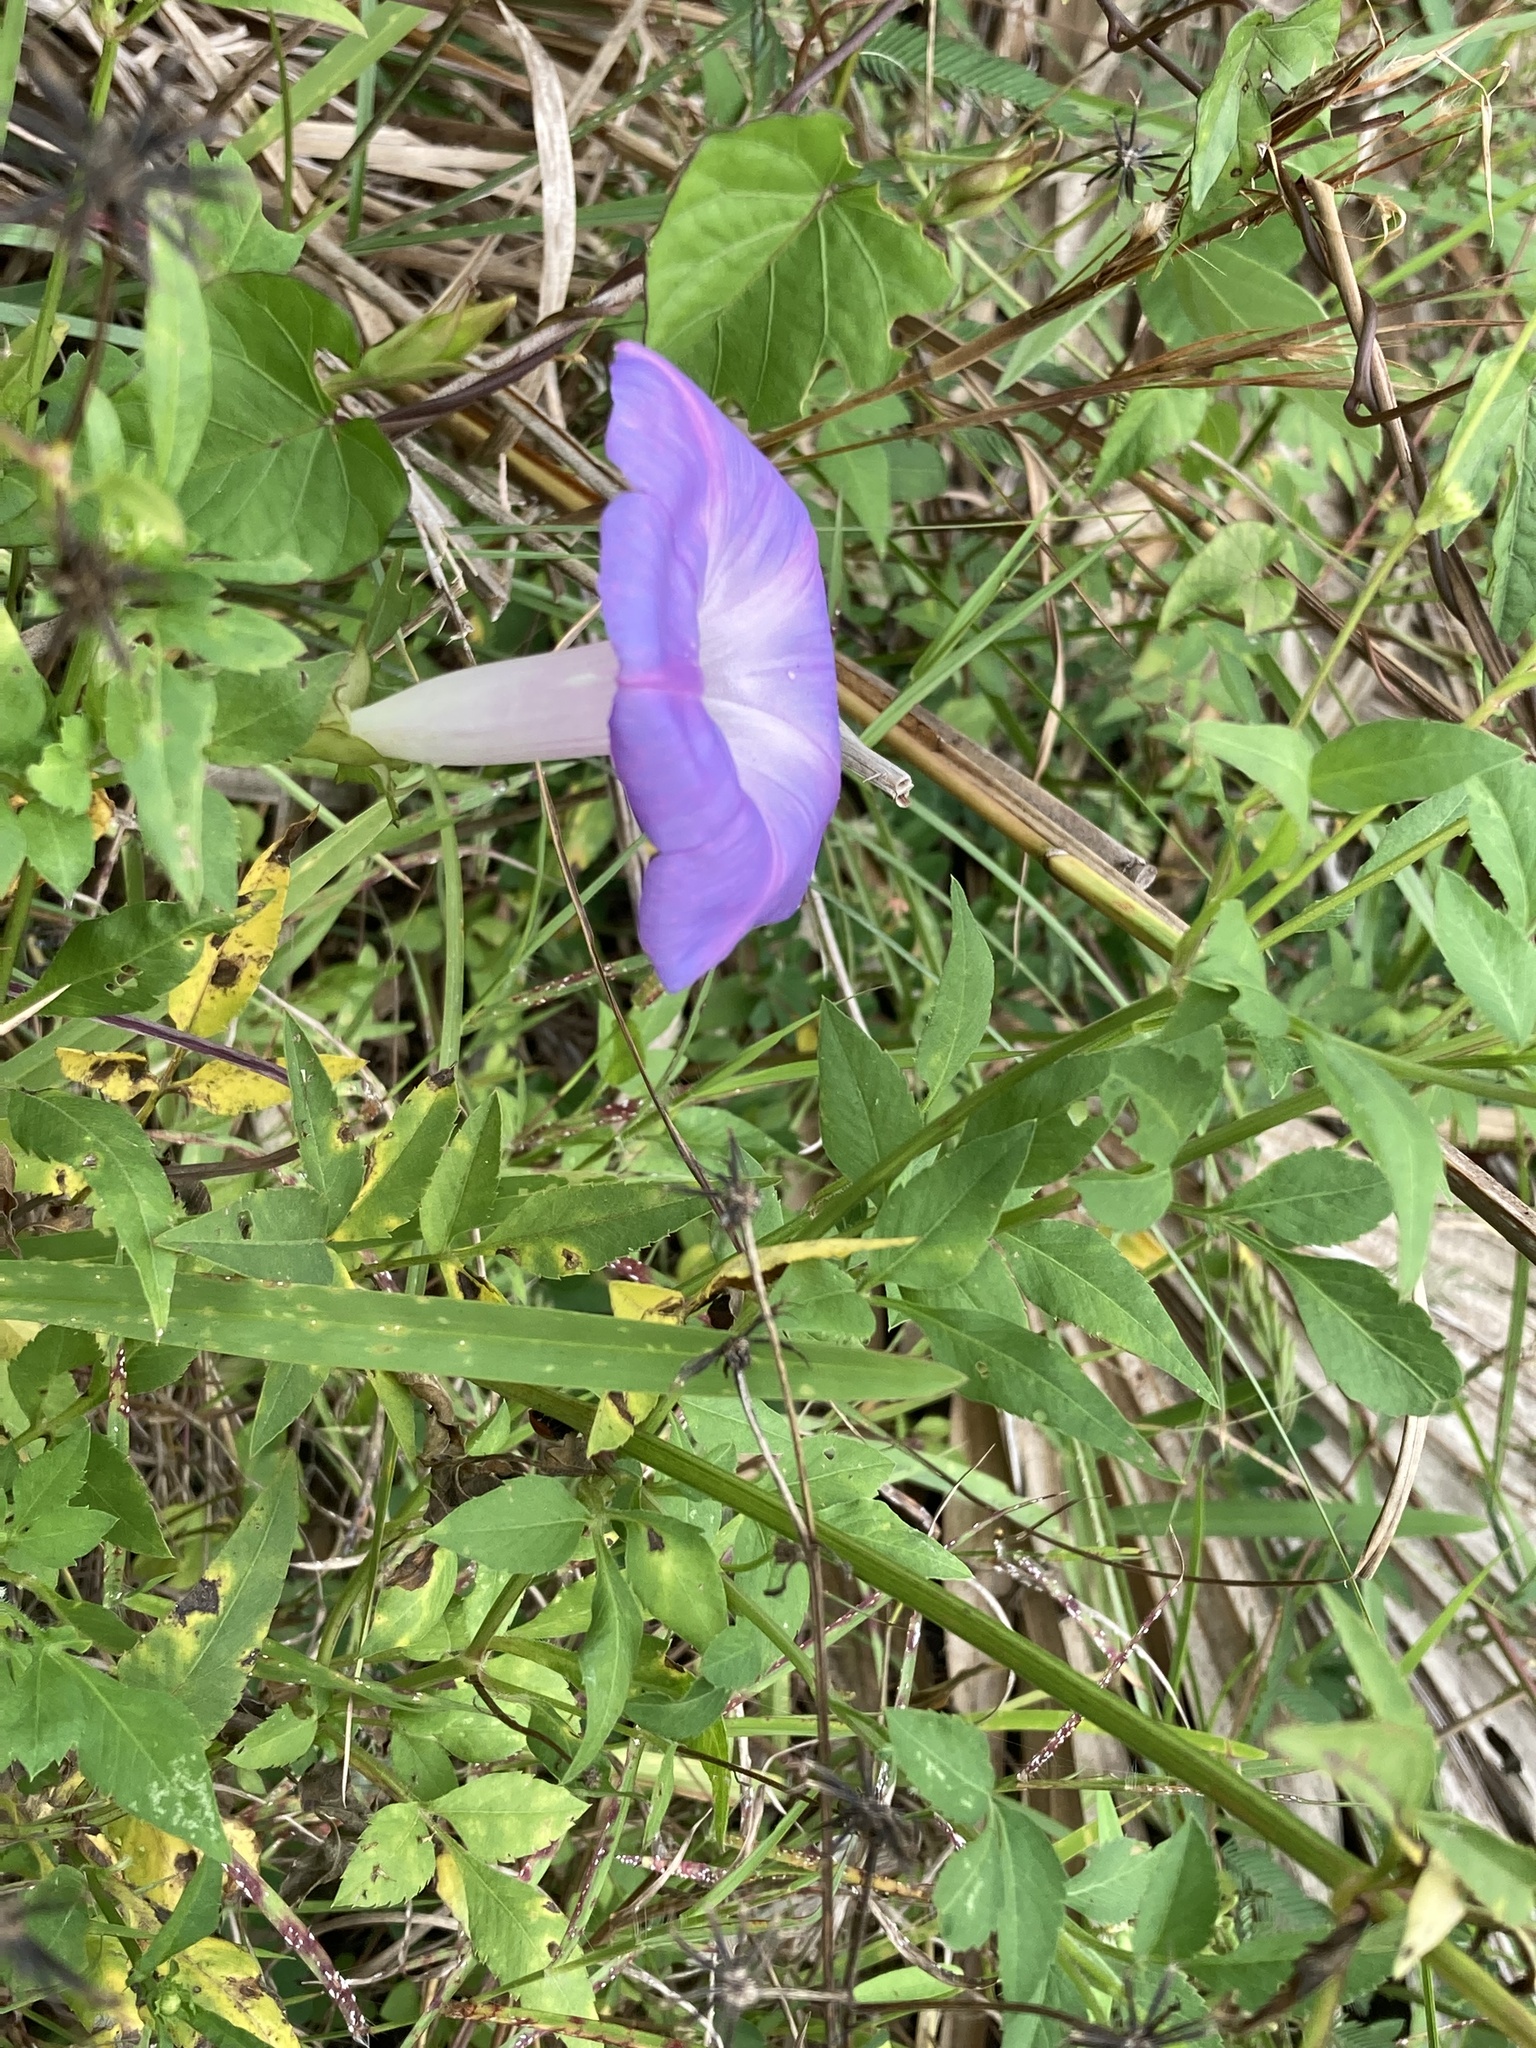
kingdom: Plantae
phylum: Tracheophyta
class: Magnoliopsida
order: Solanales
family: Convolvulaceae
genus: Ipomoea
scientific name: Ipomoea indica
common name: Blue dawnflower
